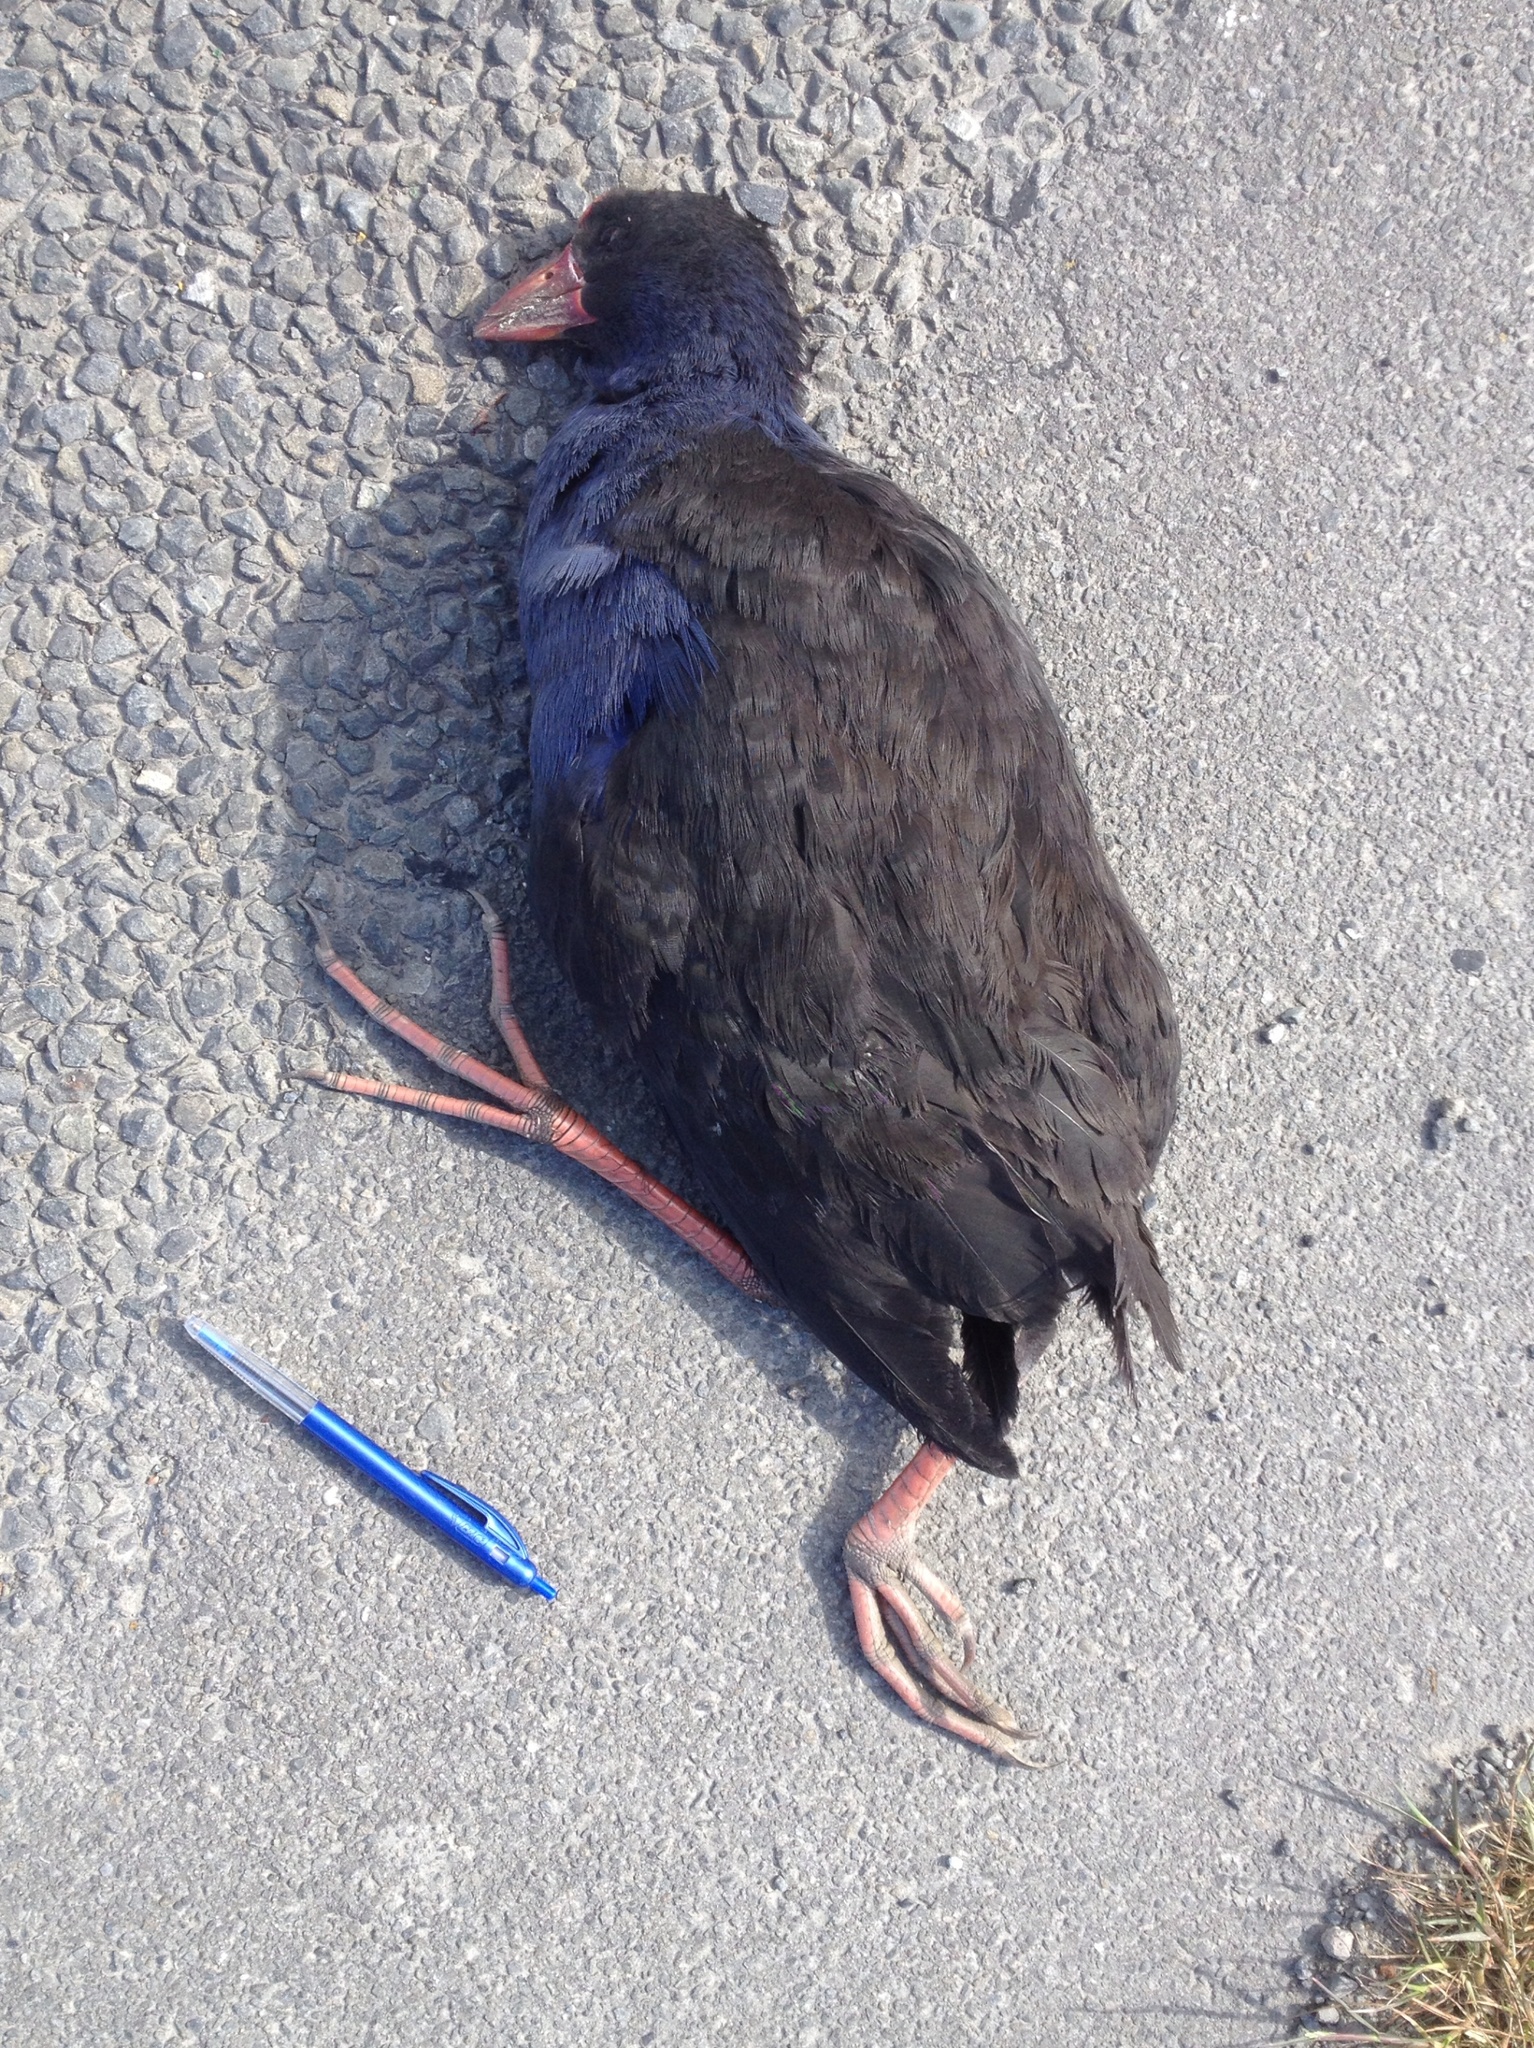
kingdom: Animalia
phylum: Chordata
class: Aves
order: Gruiformes
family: Rallidae
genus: Porphyrio
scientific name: Porphyrio melanotus
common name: Australasian swamphen
